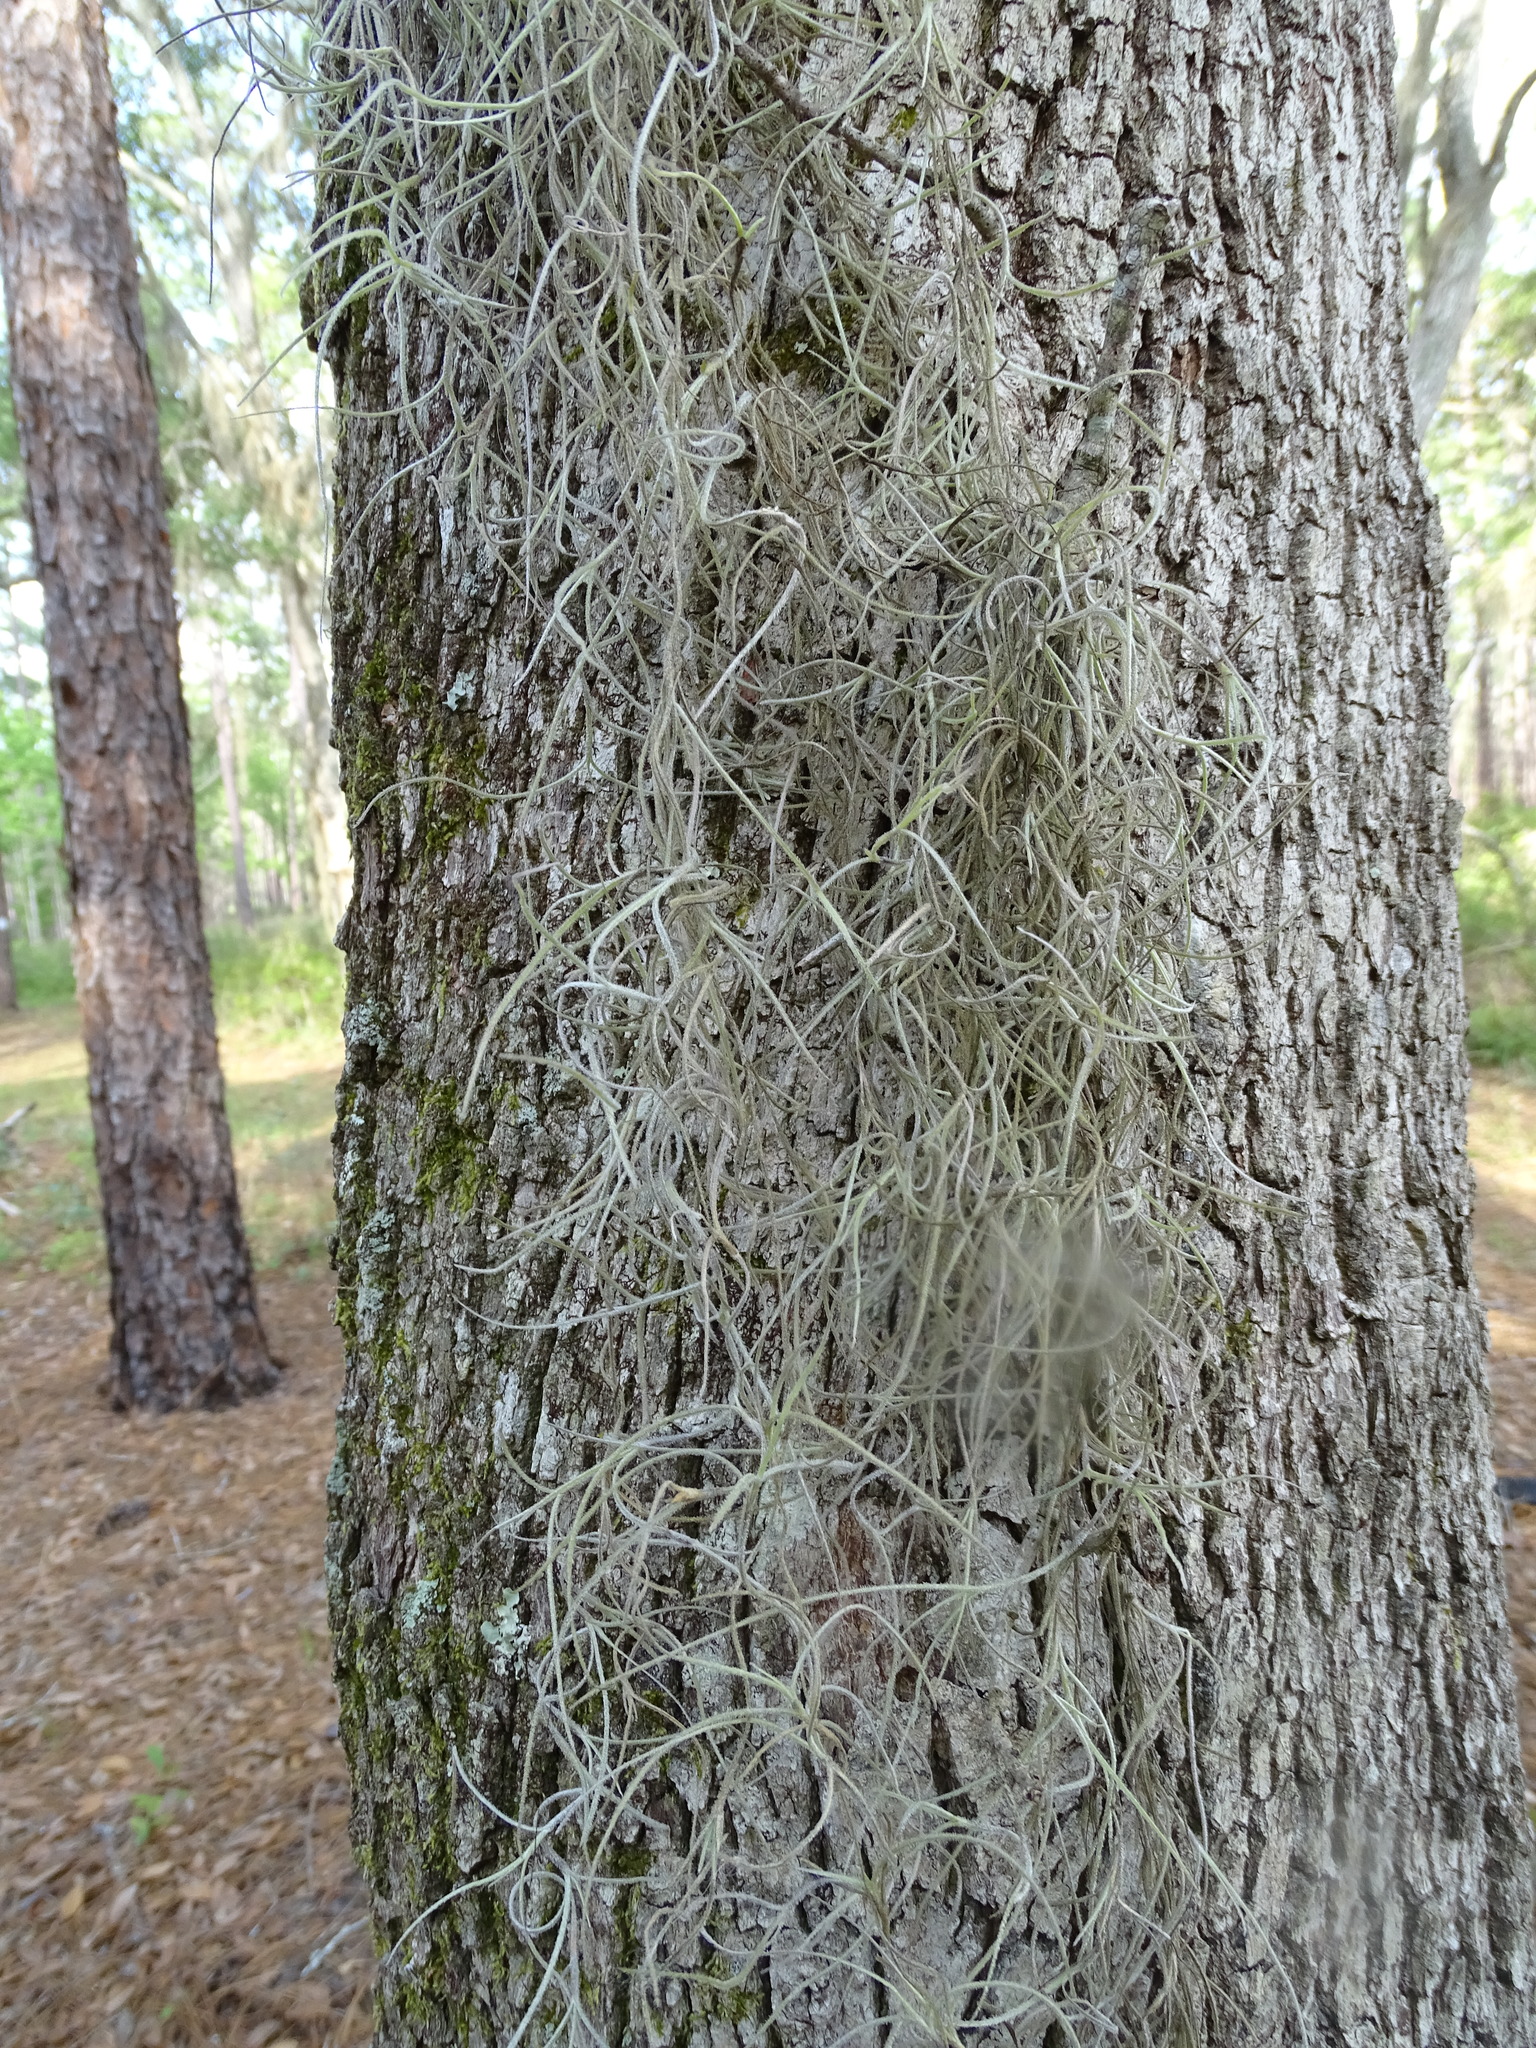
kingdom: Plantae
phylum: Tracheophyta
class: Liliopsida
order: Poales
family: Bromeliaceae
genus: Tillandsia
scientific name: Tillandsia usneoides
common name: Spanish moss
